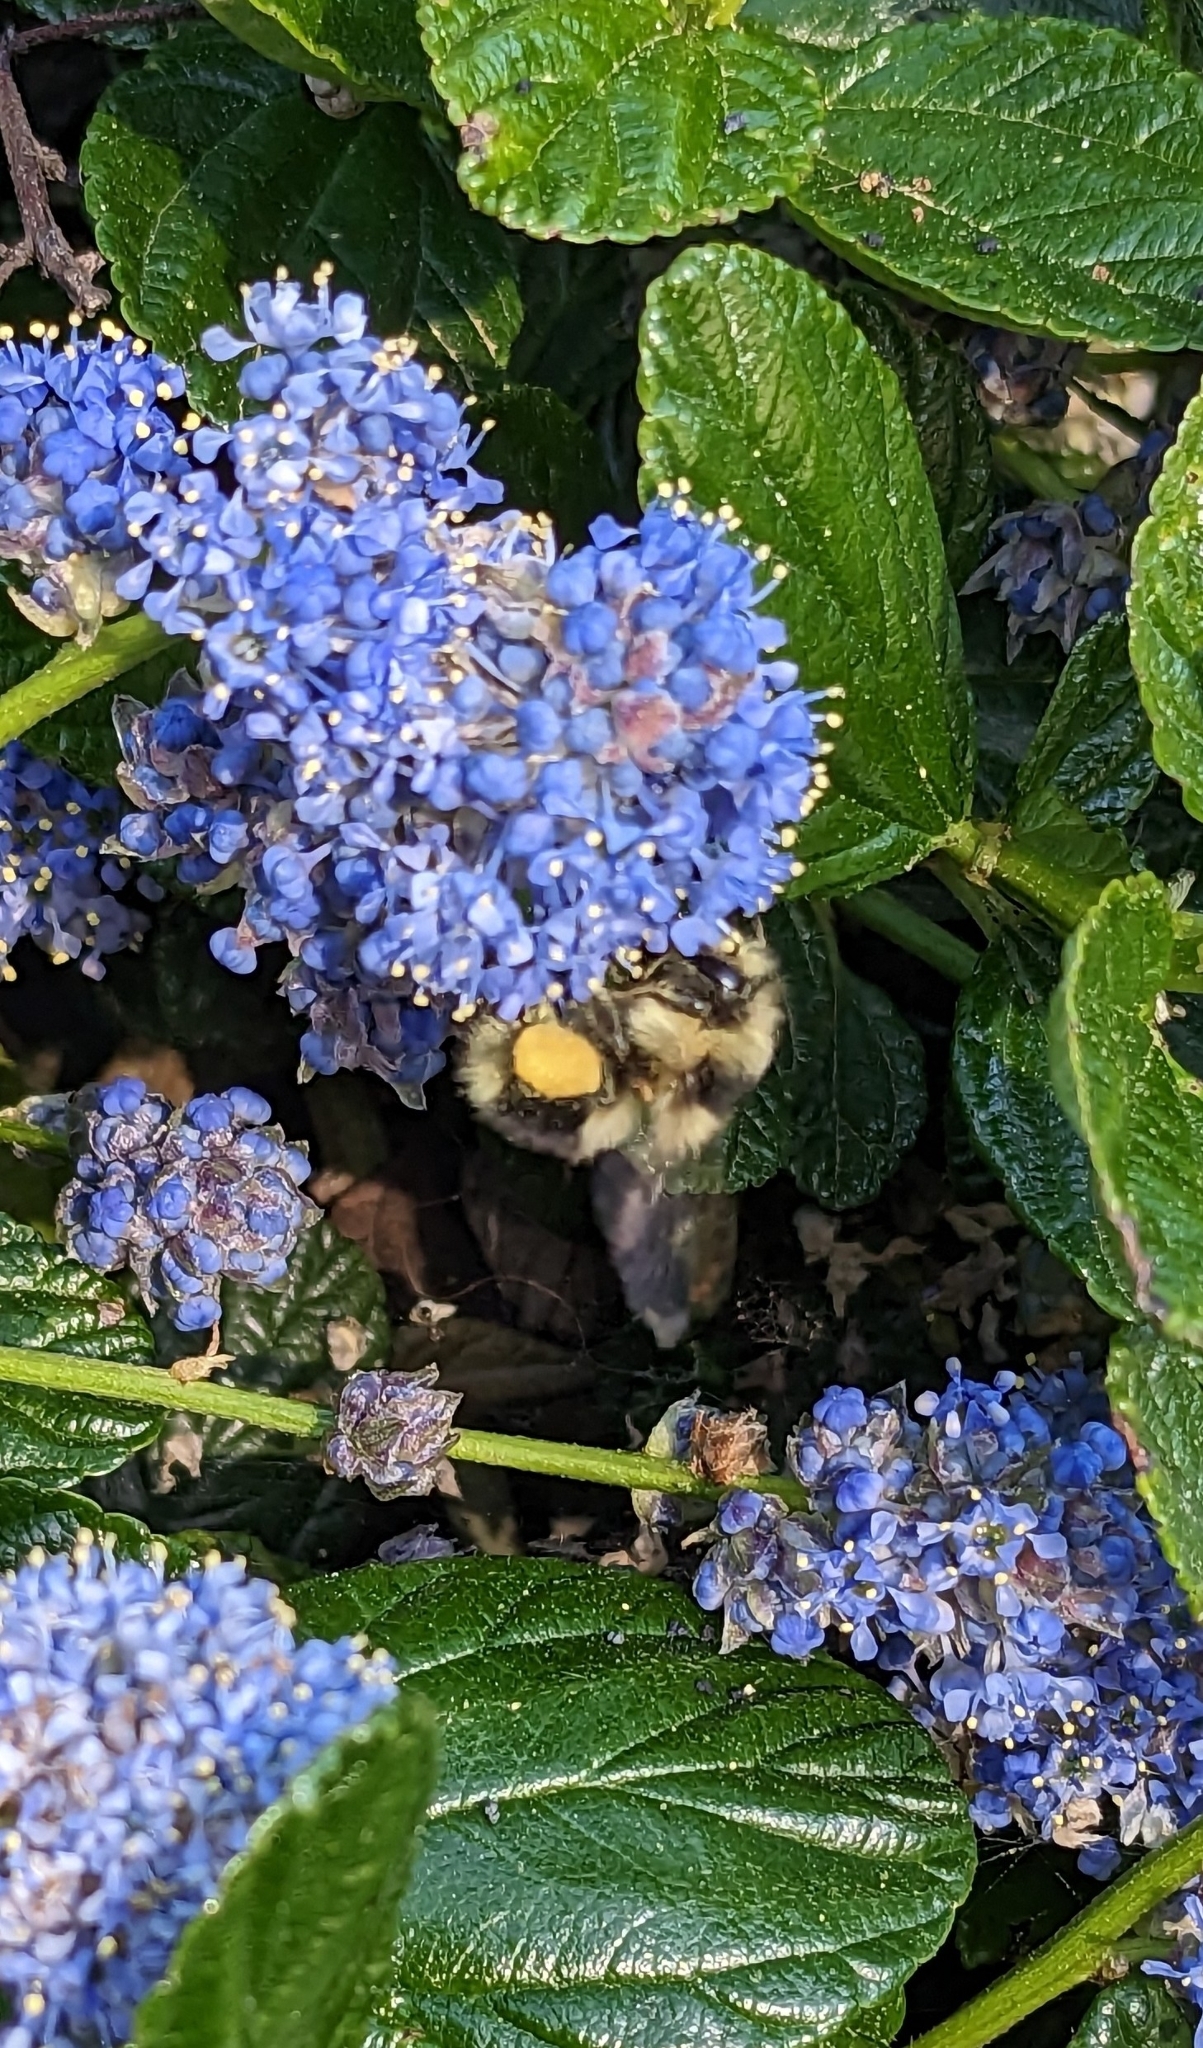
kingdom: Animalia
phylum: Arthropoda
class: Insecta
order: Hymenoptera
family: Apidae
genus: Bombus
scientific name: Bombus melanopygus
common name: Black tail bumble bee
